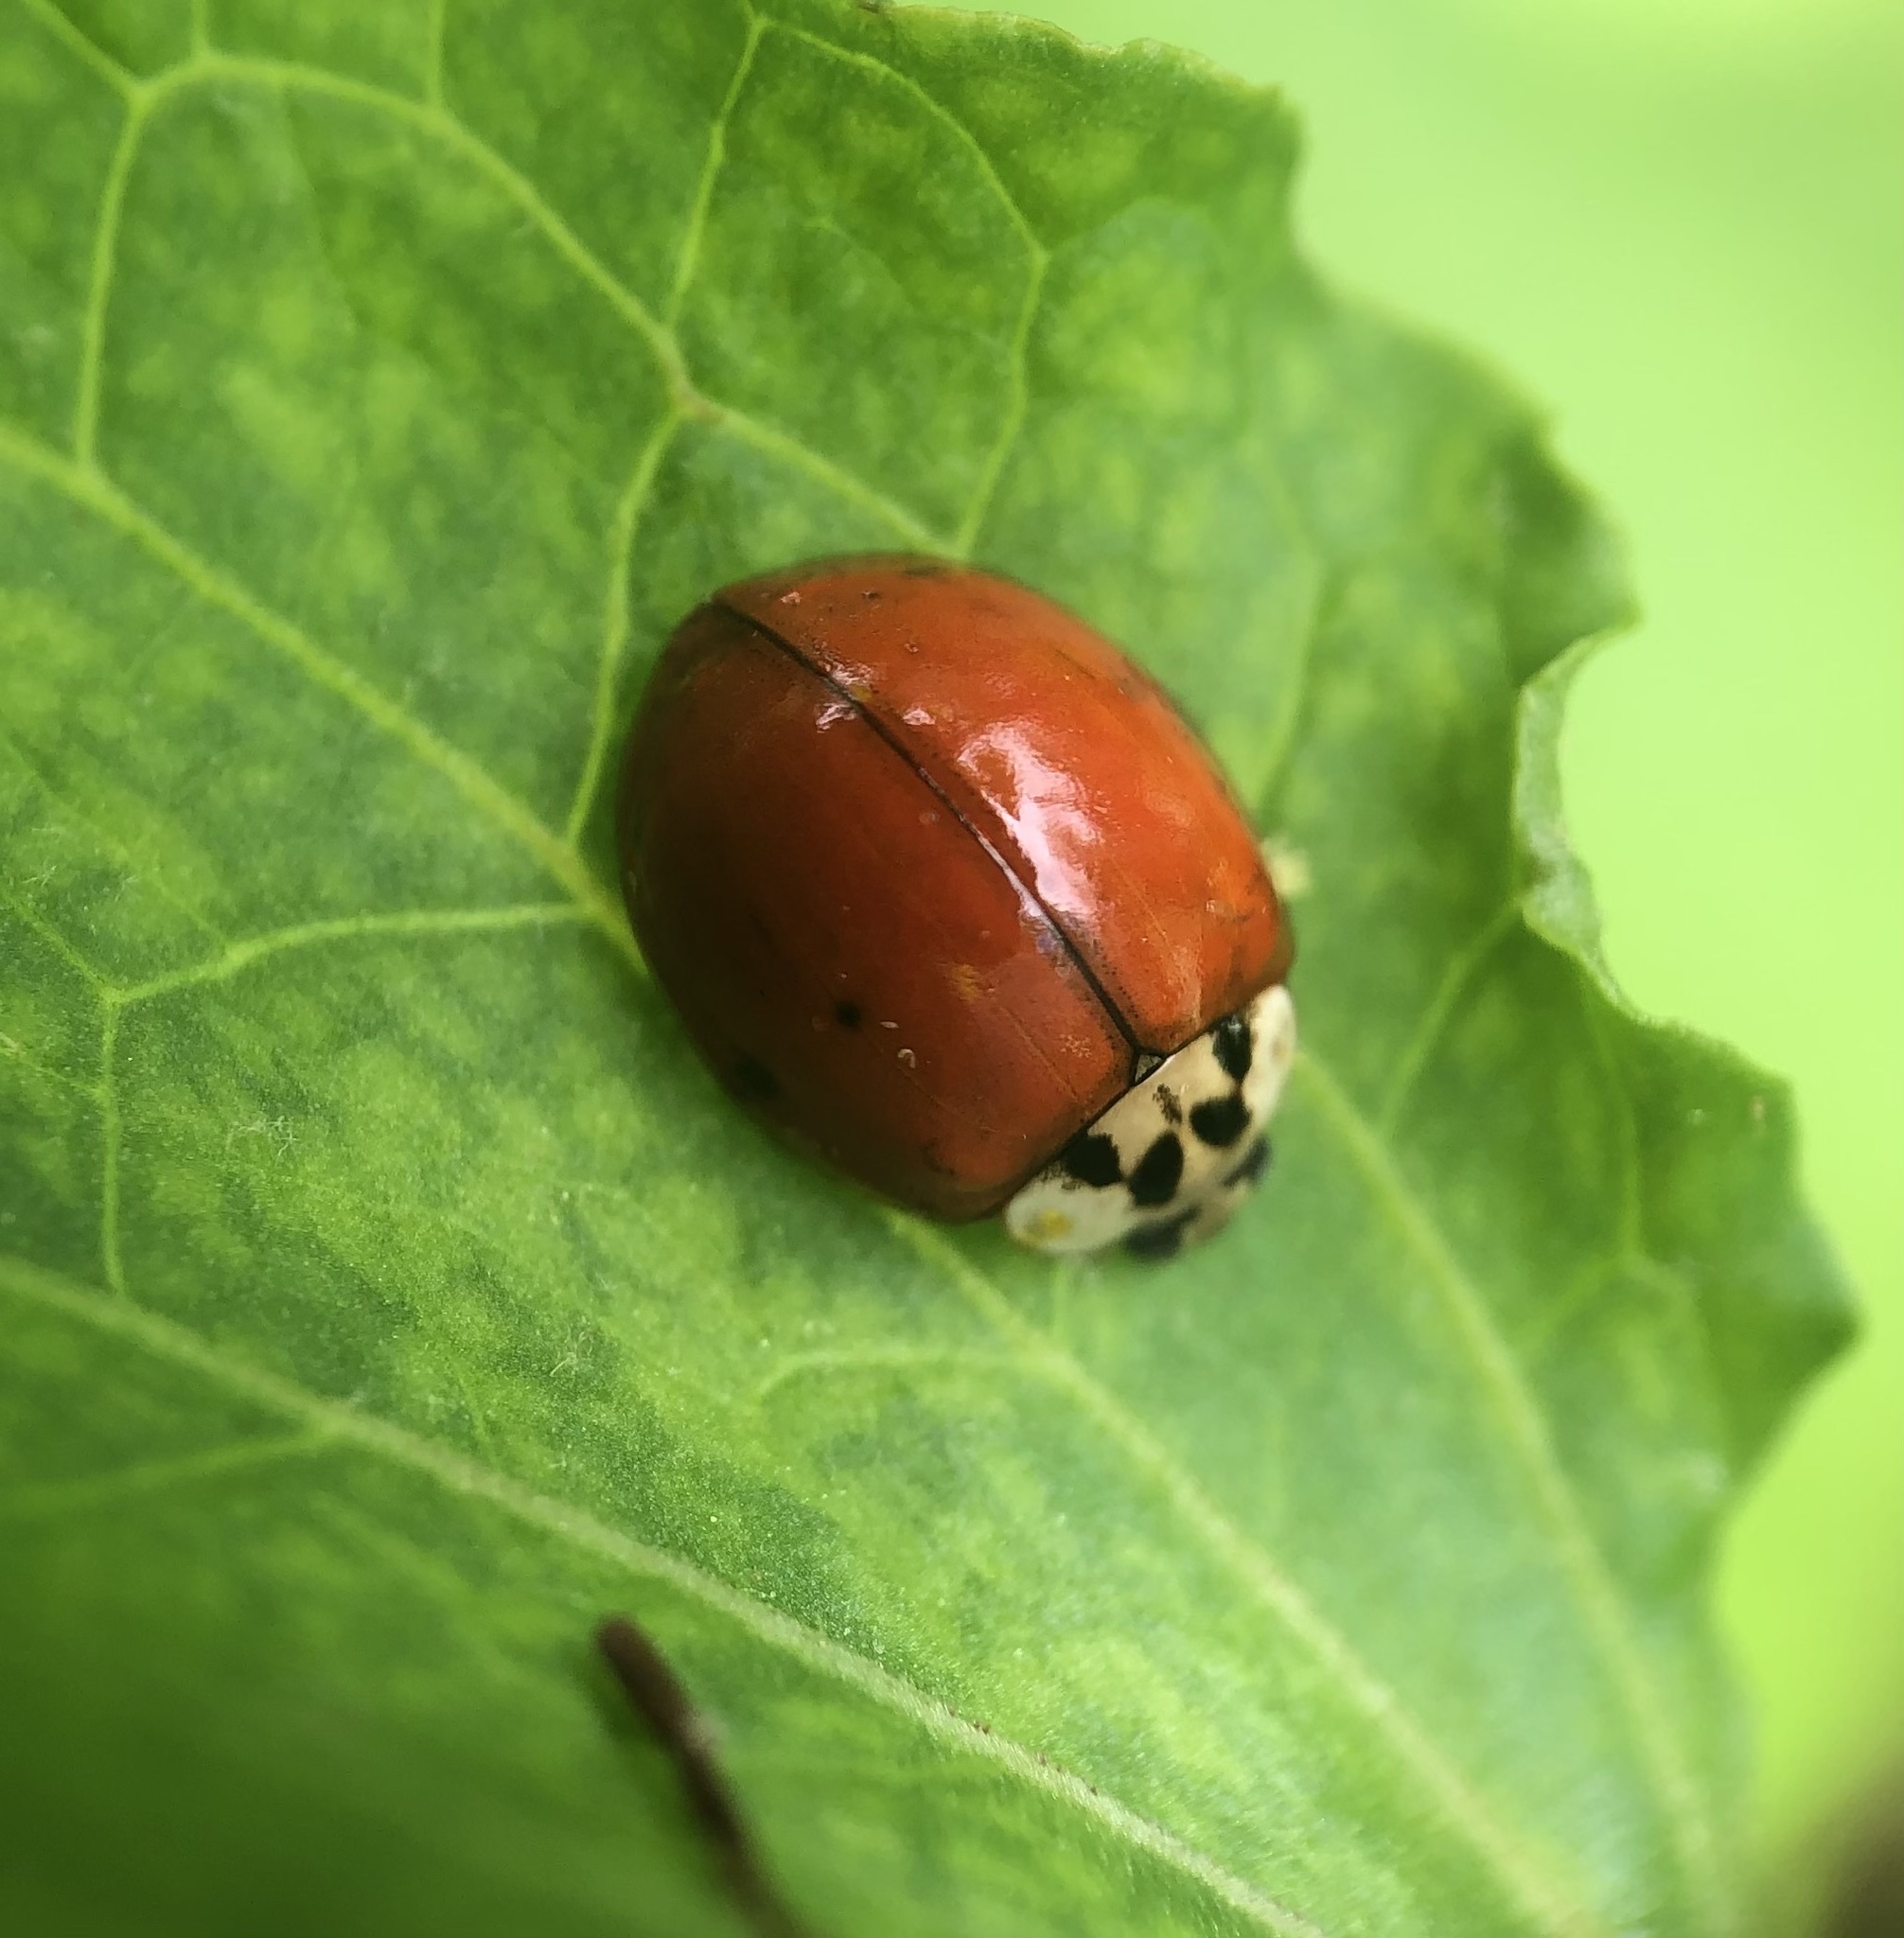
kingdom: Animalia
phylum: Arthropoda
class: Insecta
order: Coleoptera
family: Coccinellidae
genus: Harmonia
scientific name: Harmonia axyridis
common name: Harlequin ladybird
